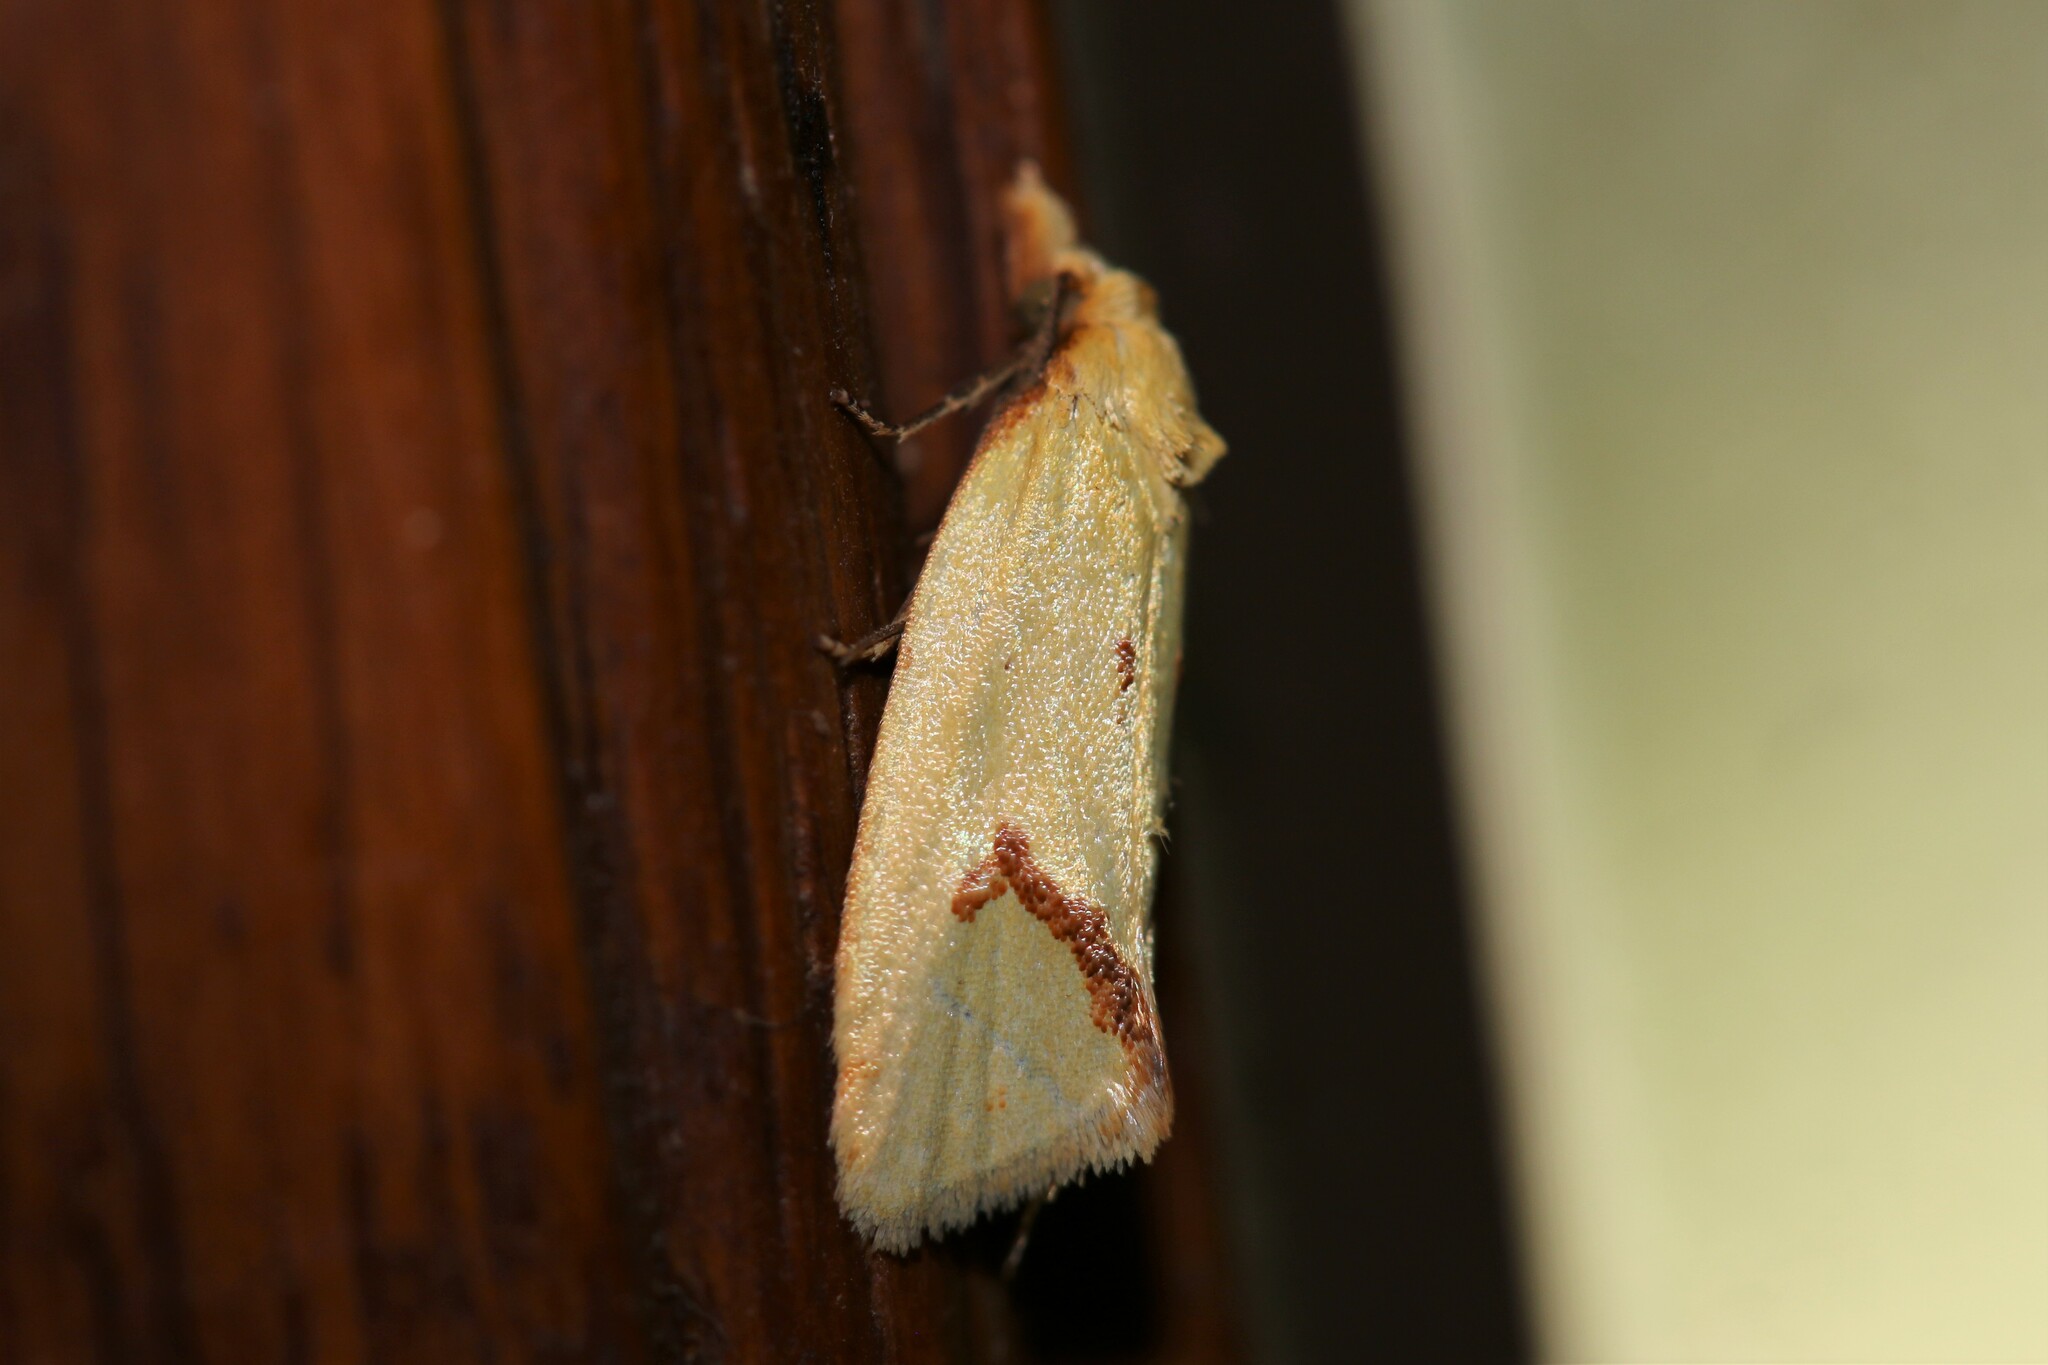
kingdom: Animalia
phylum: Arthropoda
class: Insecta
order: Lepidoptera
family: Tortricidae
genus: Agapeta
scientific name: Agapeta hamana
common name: Common yellow conch
